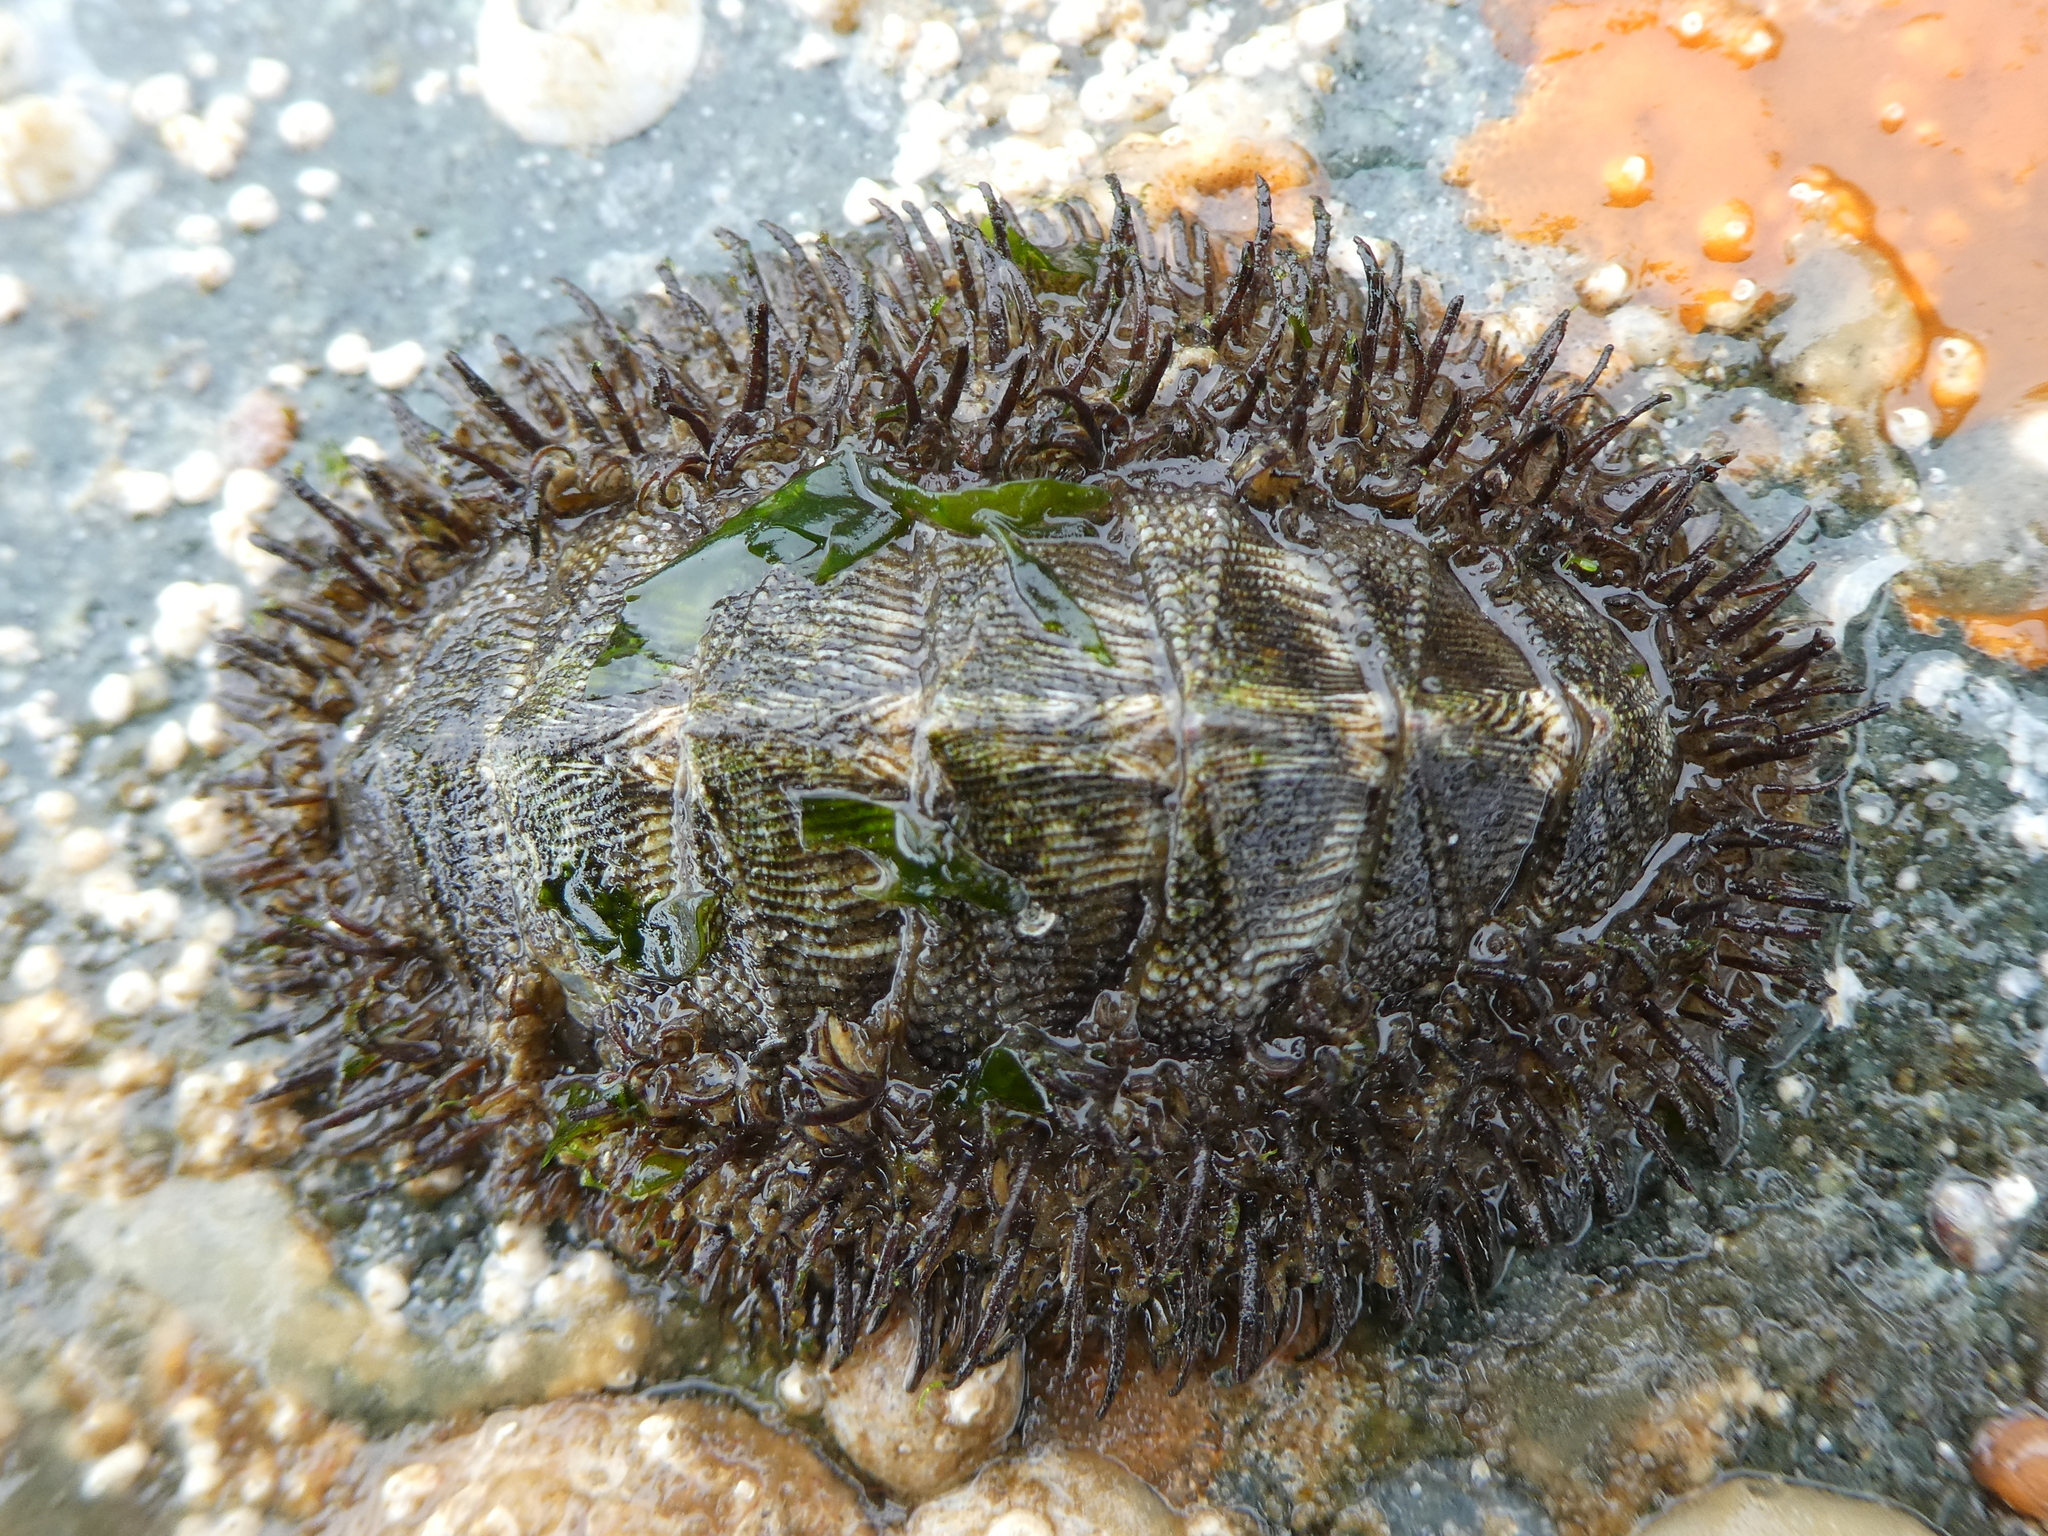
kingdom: Animalia
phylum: Mollusca
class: Polyplacophora
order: Chitonida
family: Mopaliidae
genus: Mopalia
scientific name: Mopalia muscosa
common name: Mossy chiton
